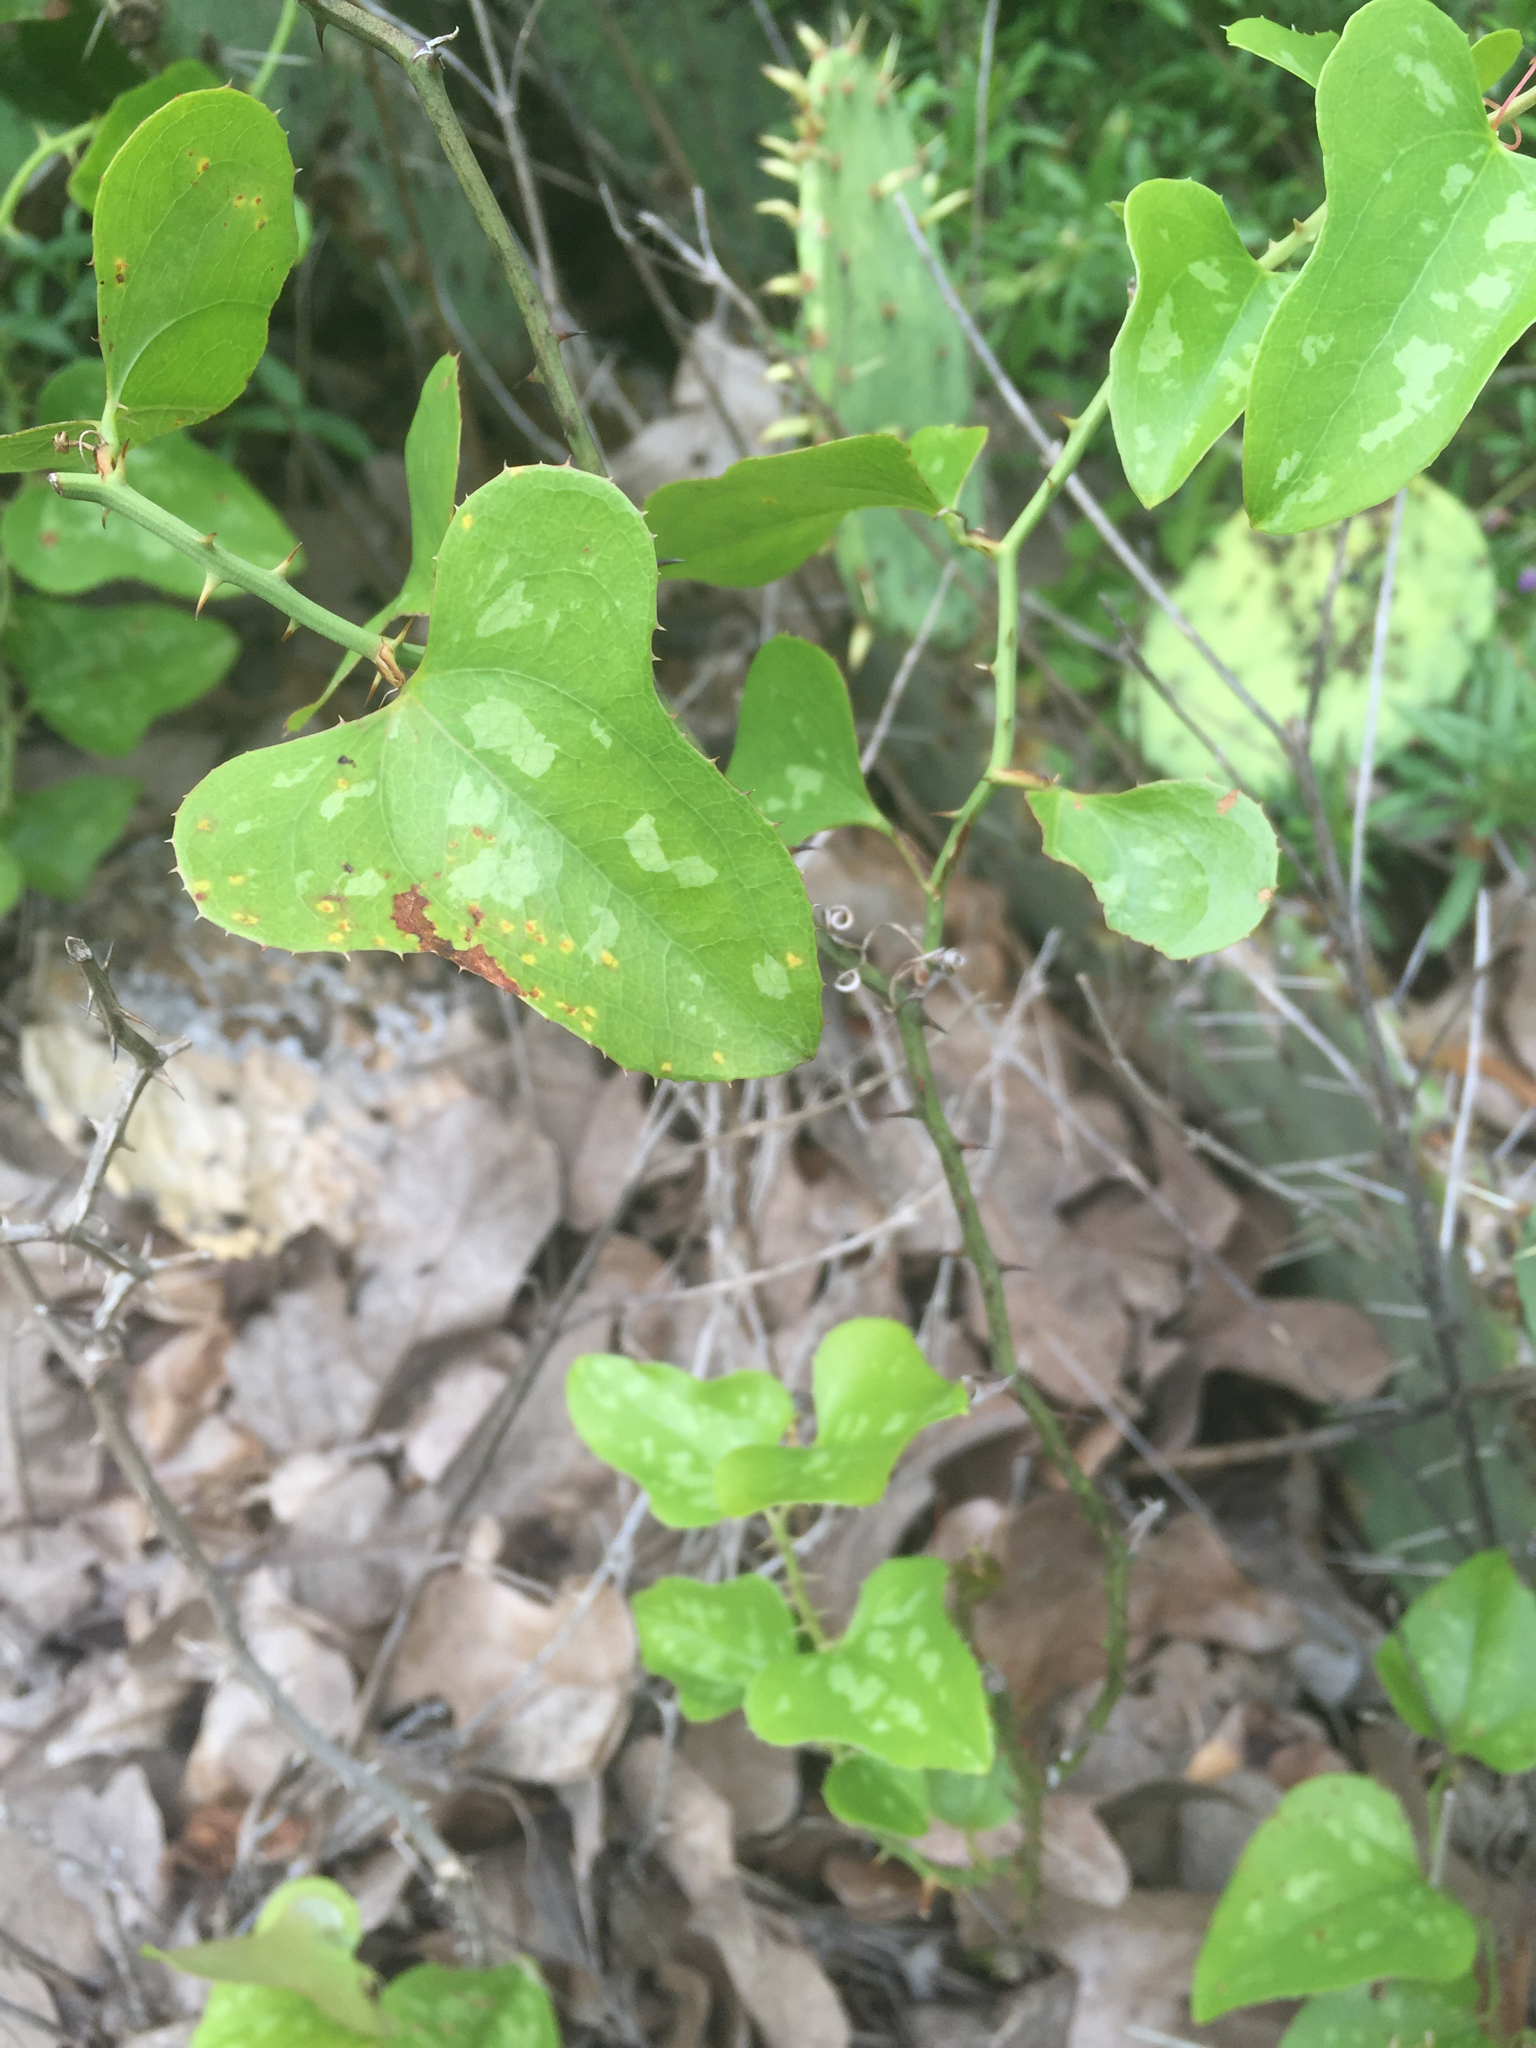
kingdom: Plantae
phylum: Tracheophyta
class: Liliopsida
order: Liliales
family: Smilacaceae
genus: Smilax
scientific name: Smilax bona-nox
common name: Catbrier
